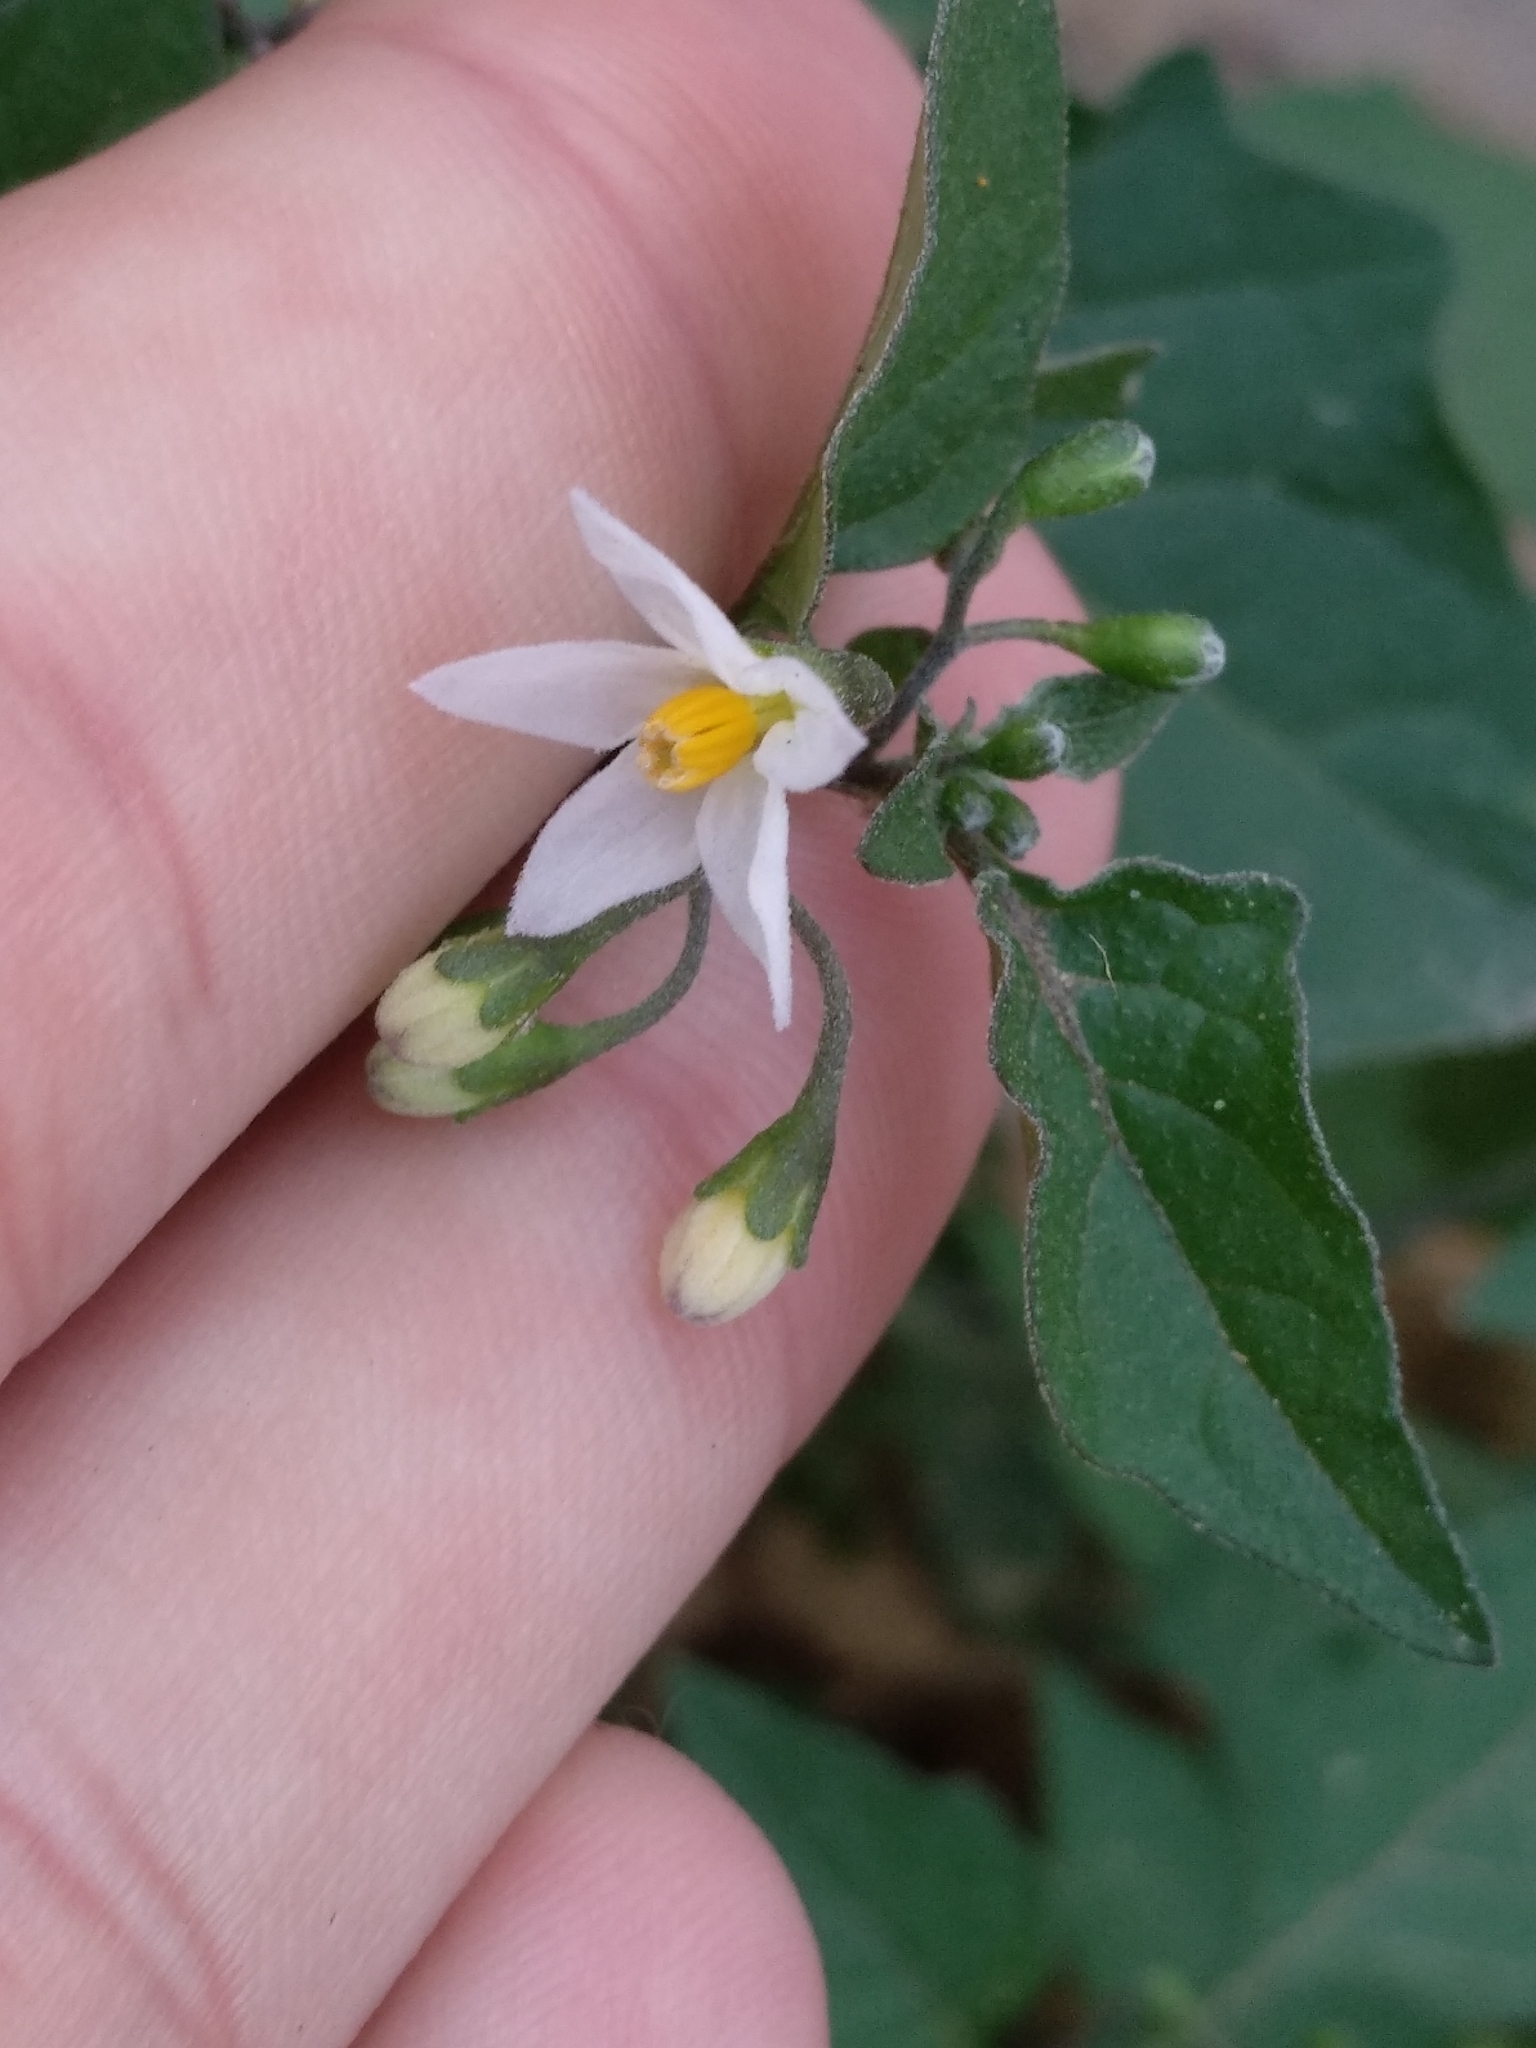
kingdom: Plantae
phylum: Tracheophyta
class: Magnoliopsida
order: Solanales
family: Solanaceae
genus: Solanum
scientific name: Solanum nigrum
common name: Black nightshade
